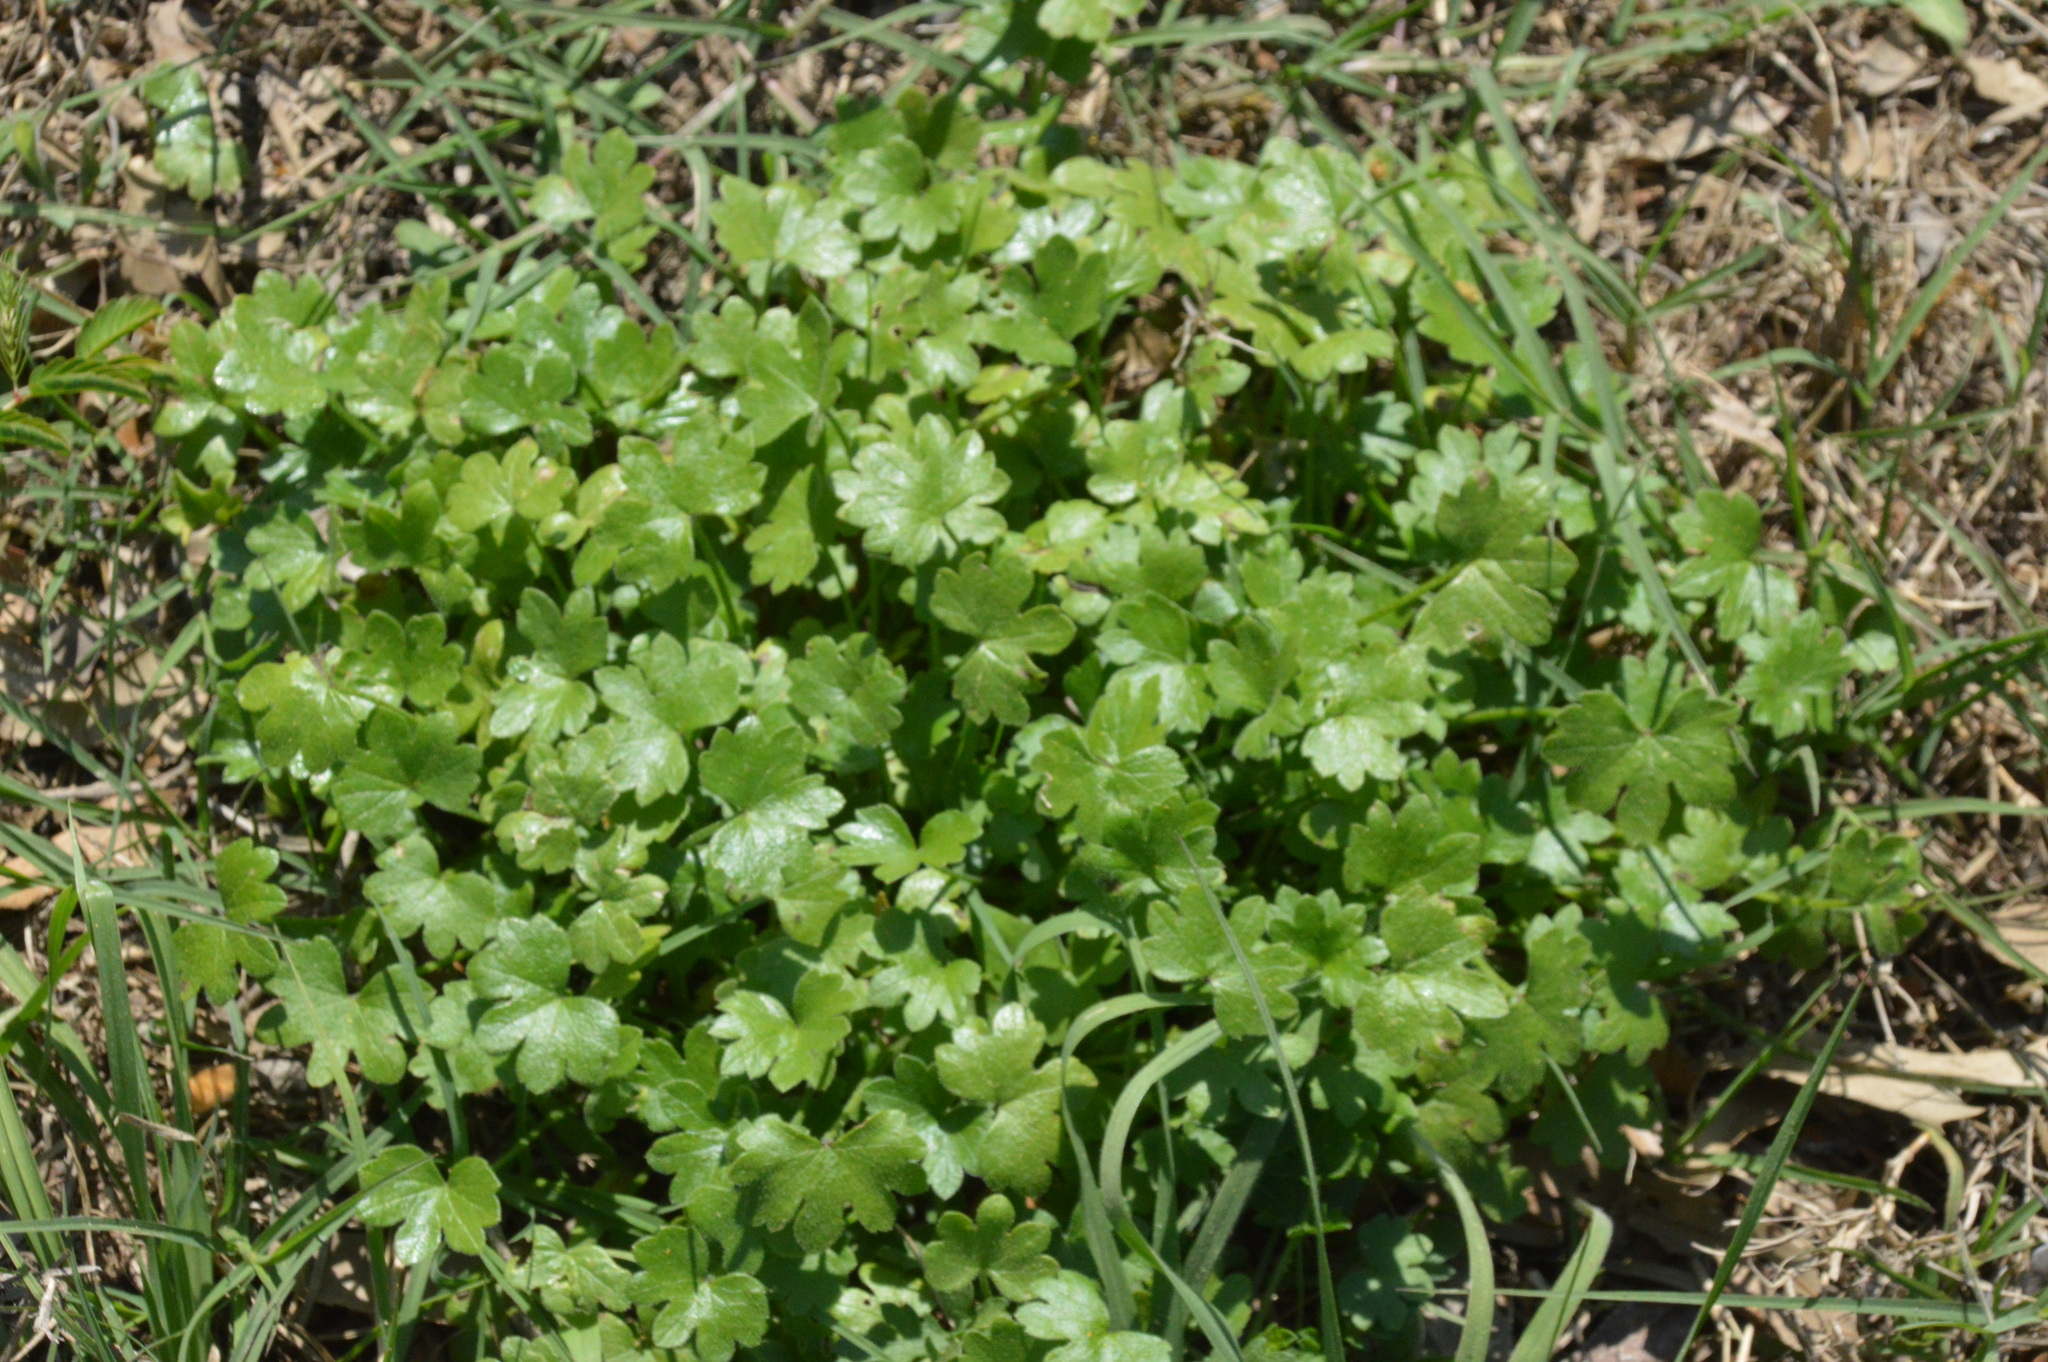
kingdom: Plantae
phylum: Tracheophyta
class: Magnoliopsida
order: Apiales
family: Apiaceae
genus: Bowlesia
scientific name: Bowlesia incana
